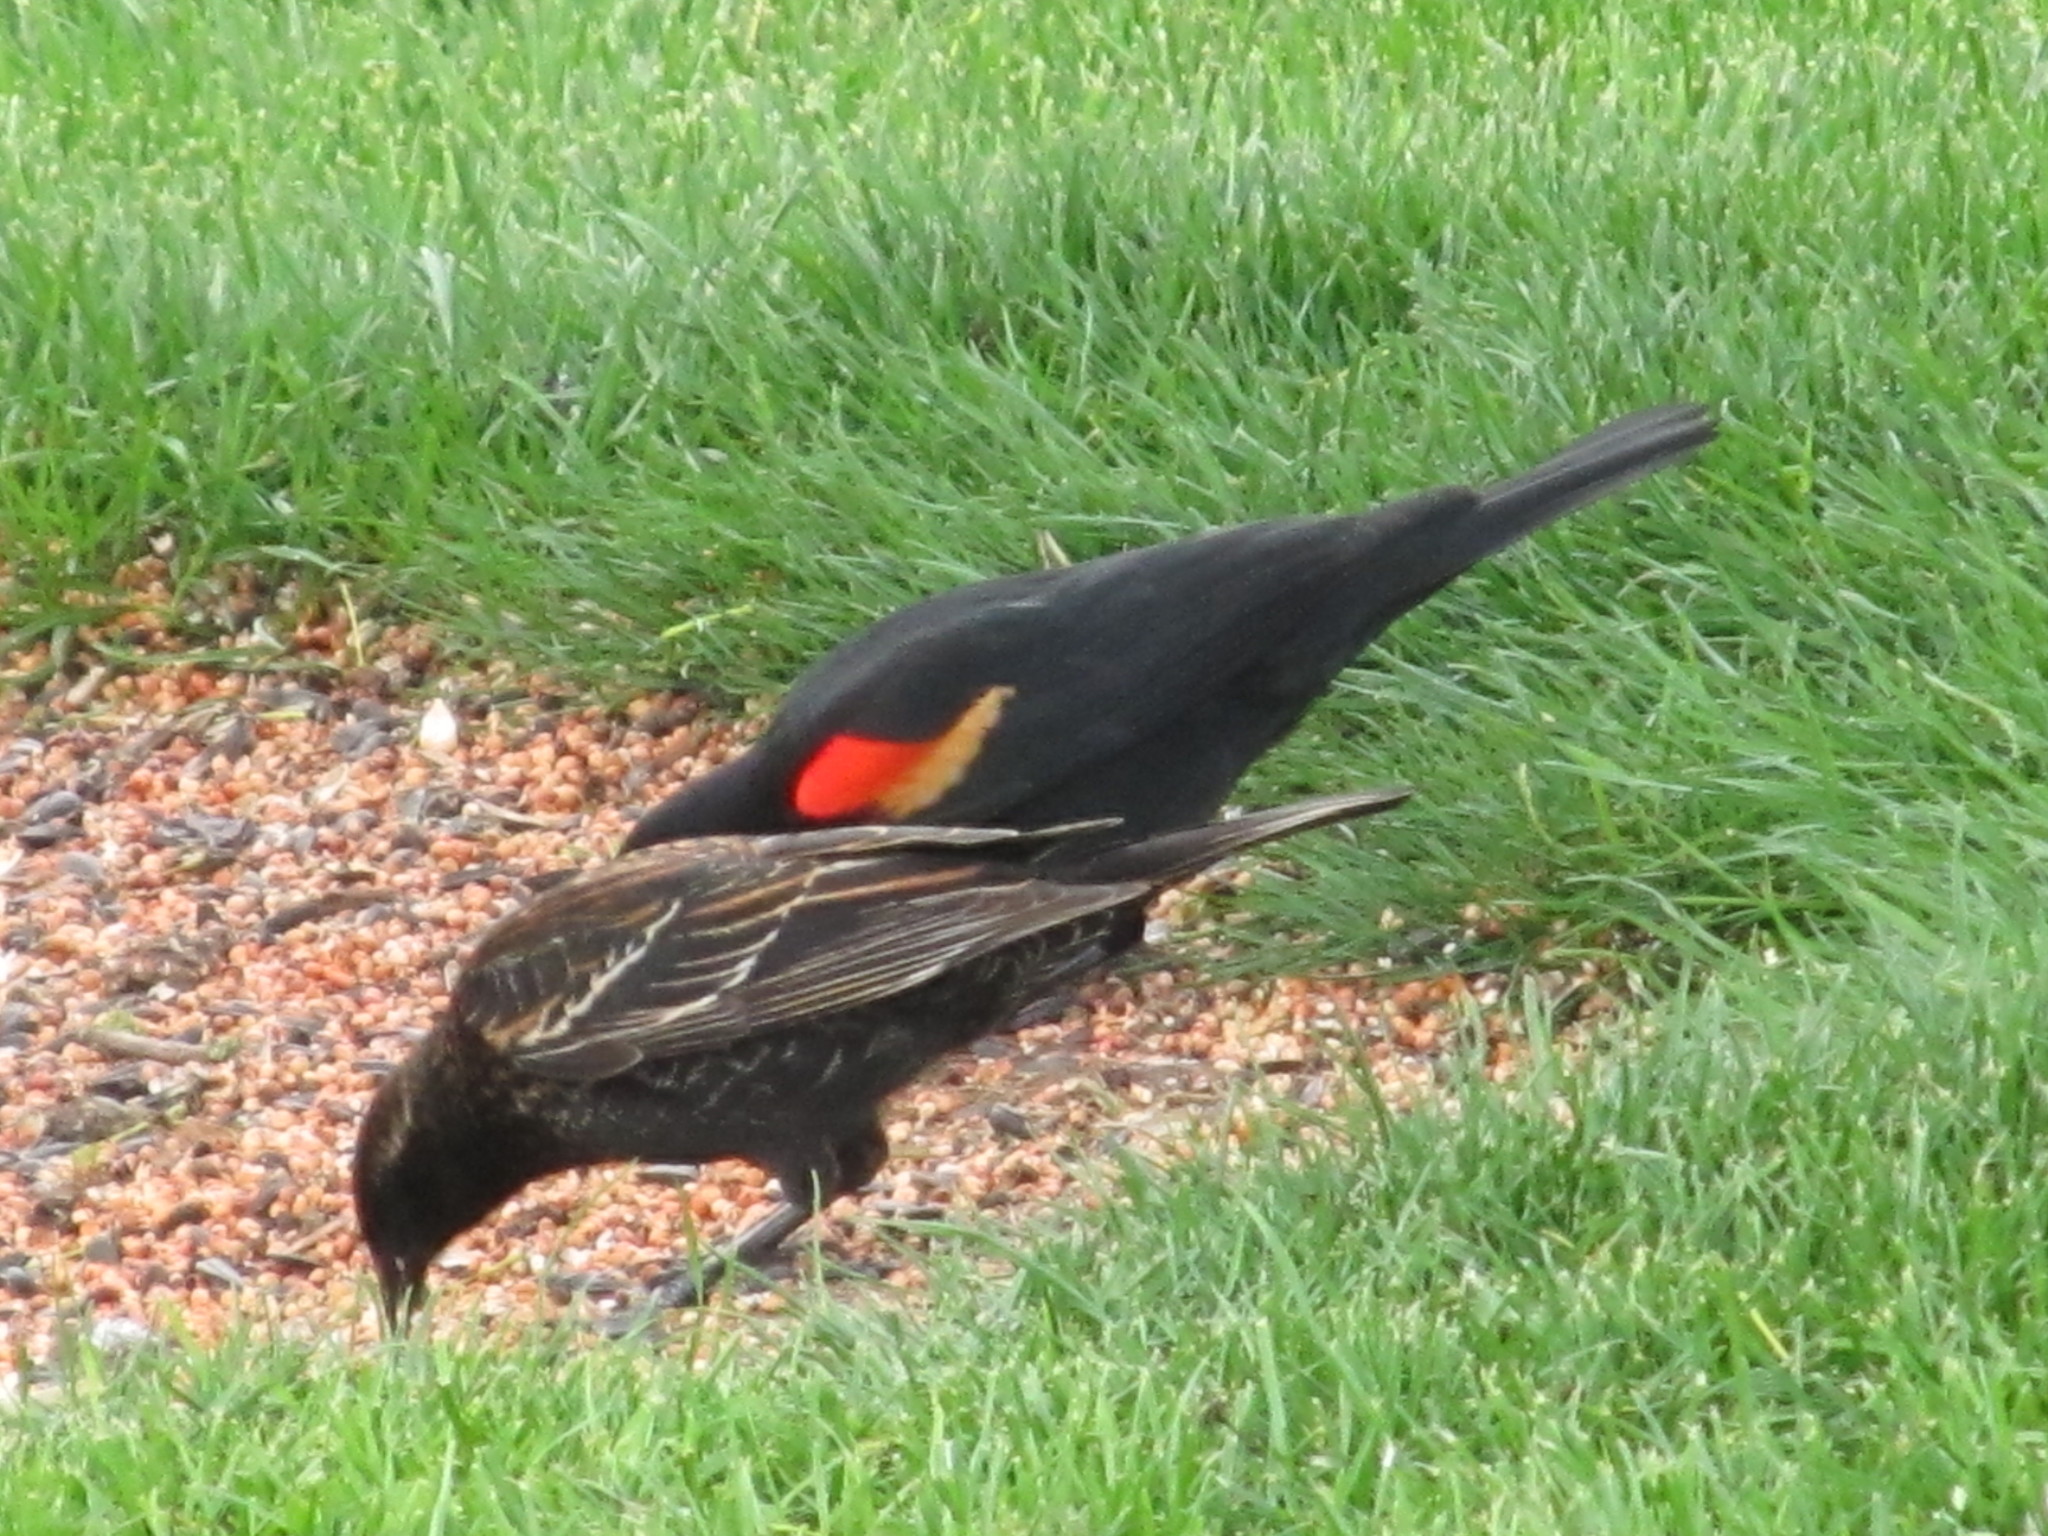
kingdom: Animalia
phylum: Chordata
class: Aves
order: Passeriformes
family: Icteridae
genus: Agelaius
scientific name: Agelaius phoeniceus
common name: Red-winged blackbird
